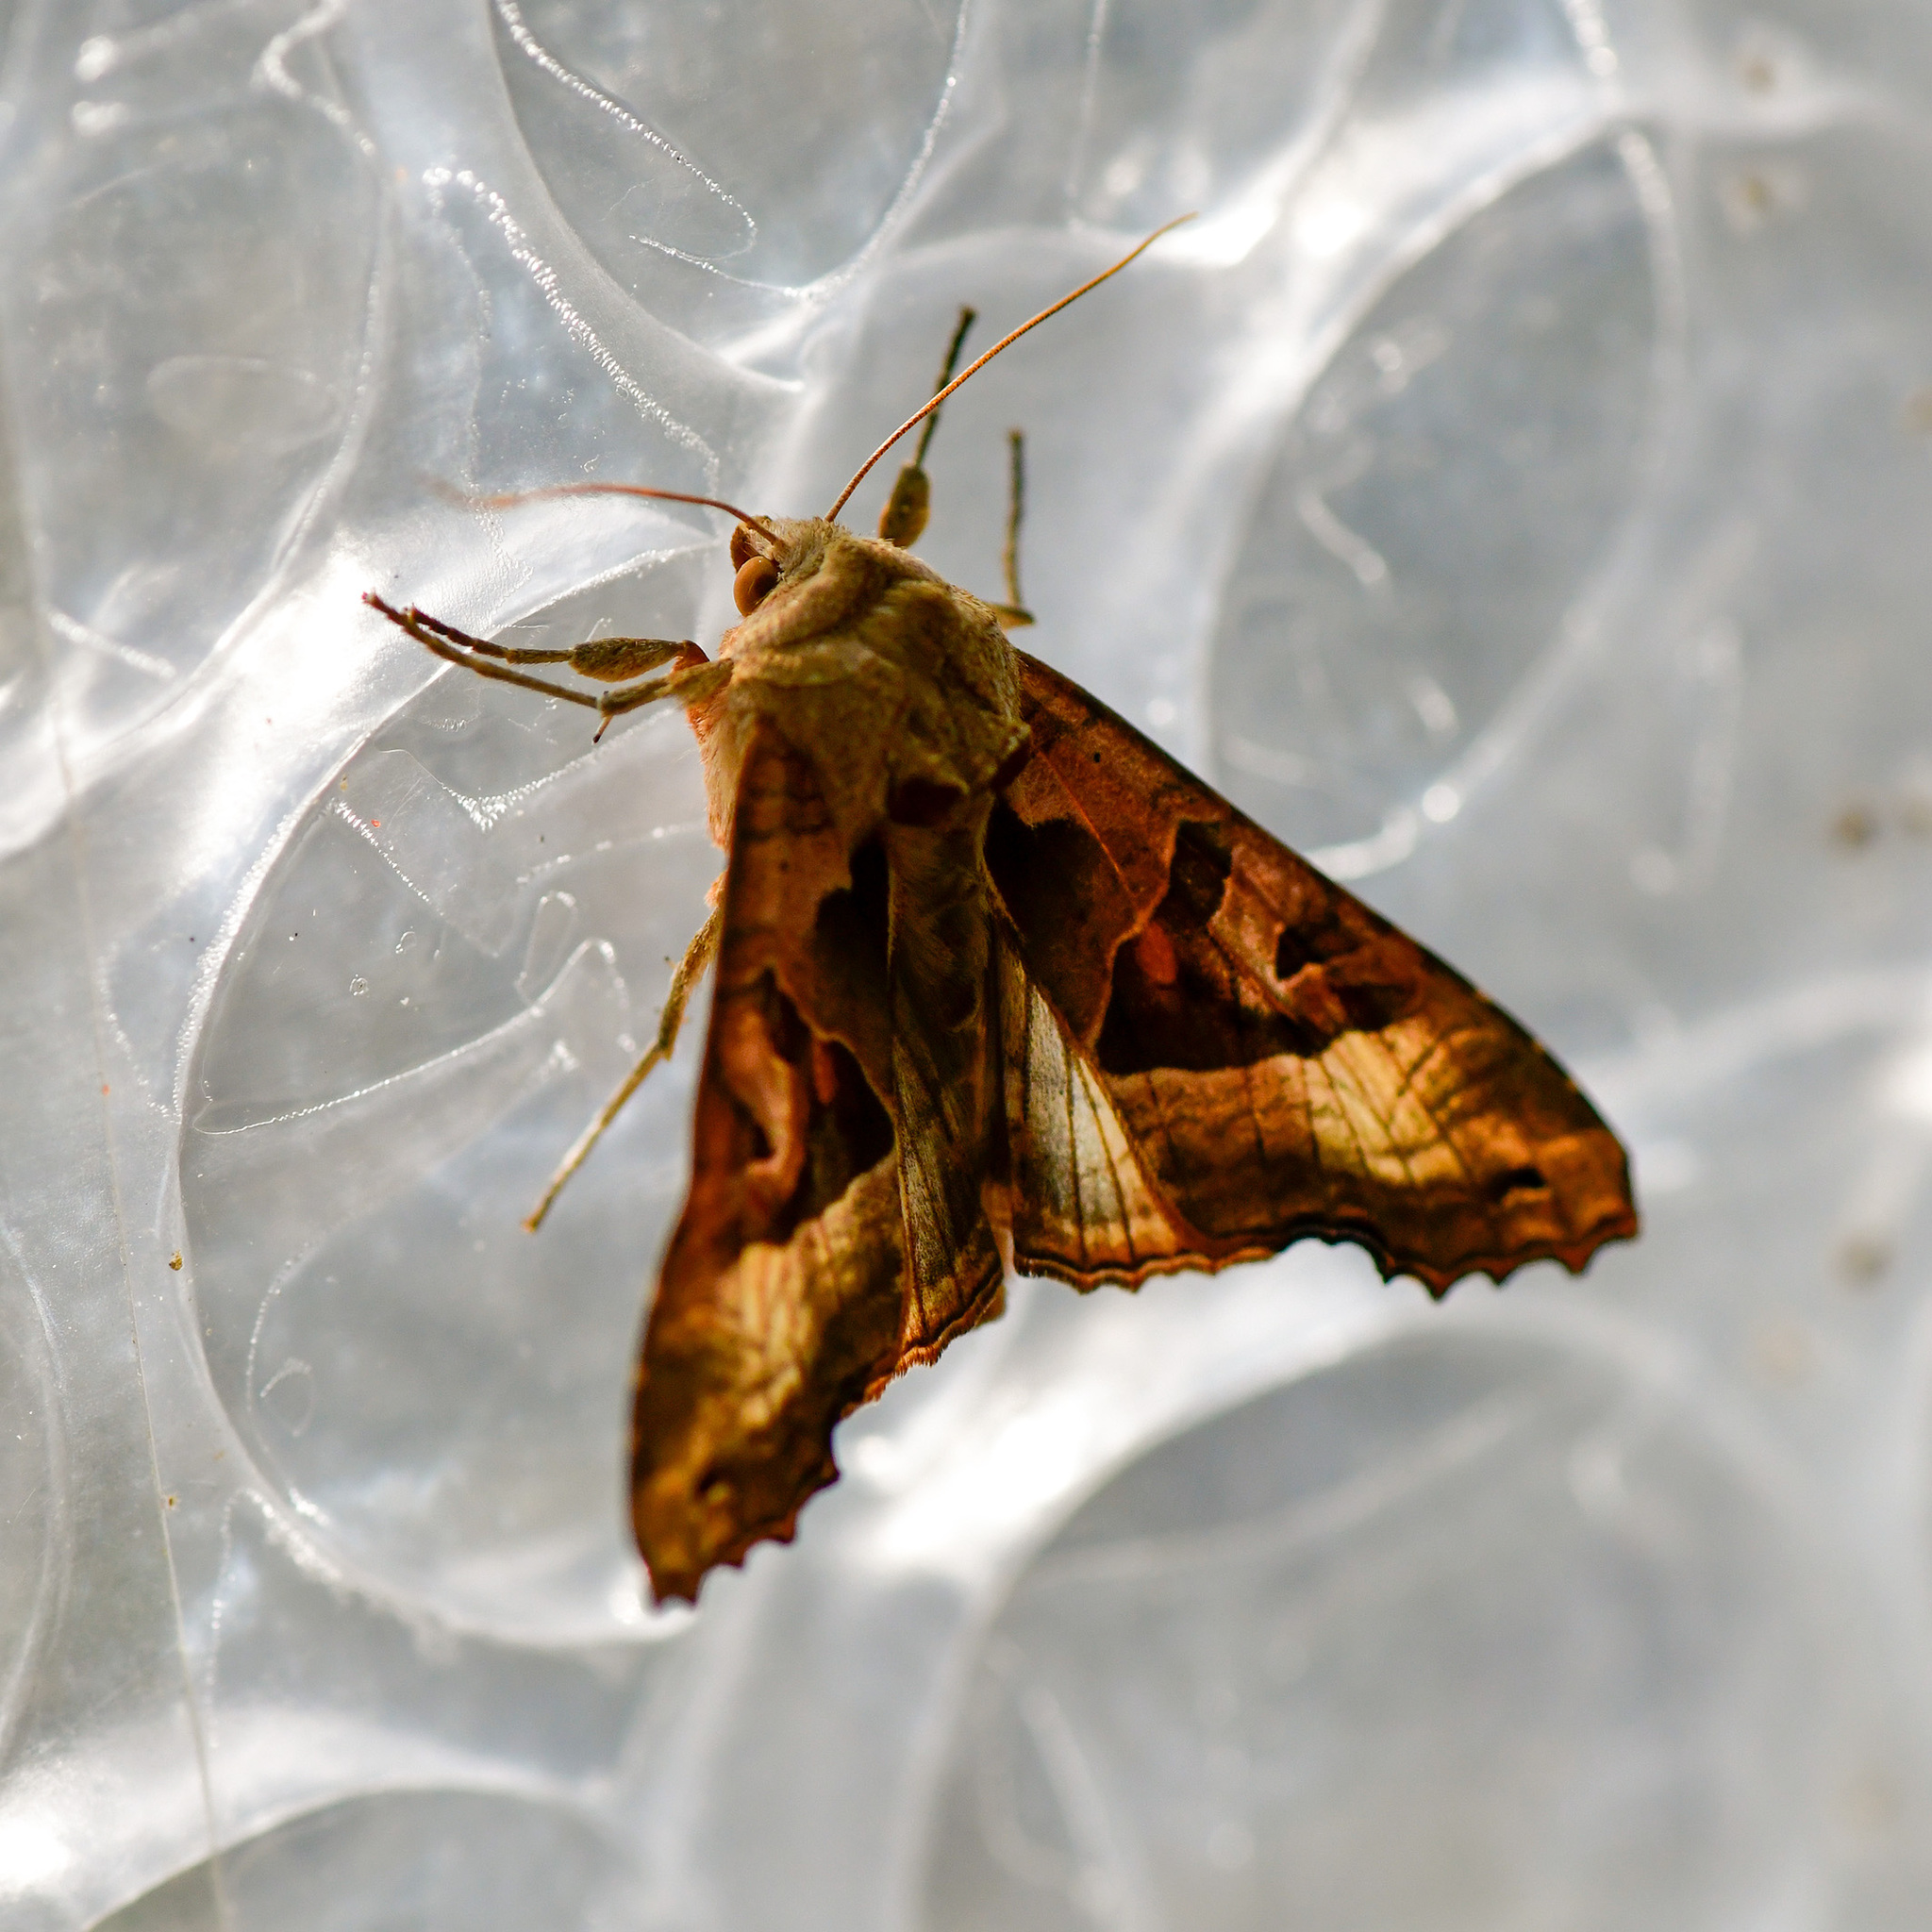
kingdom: Animalia
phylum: Arthropoda
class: Insecta
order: Lepidoptera
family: Noctuidae
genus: Phlogophora
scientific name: Phlogophora meticulosa
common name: Angle shades
